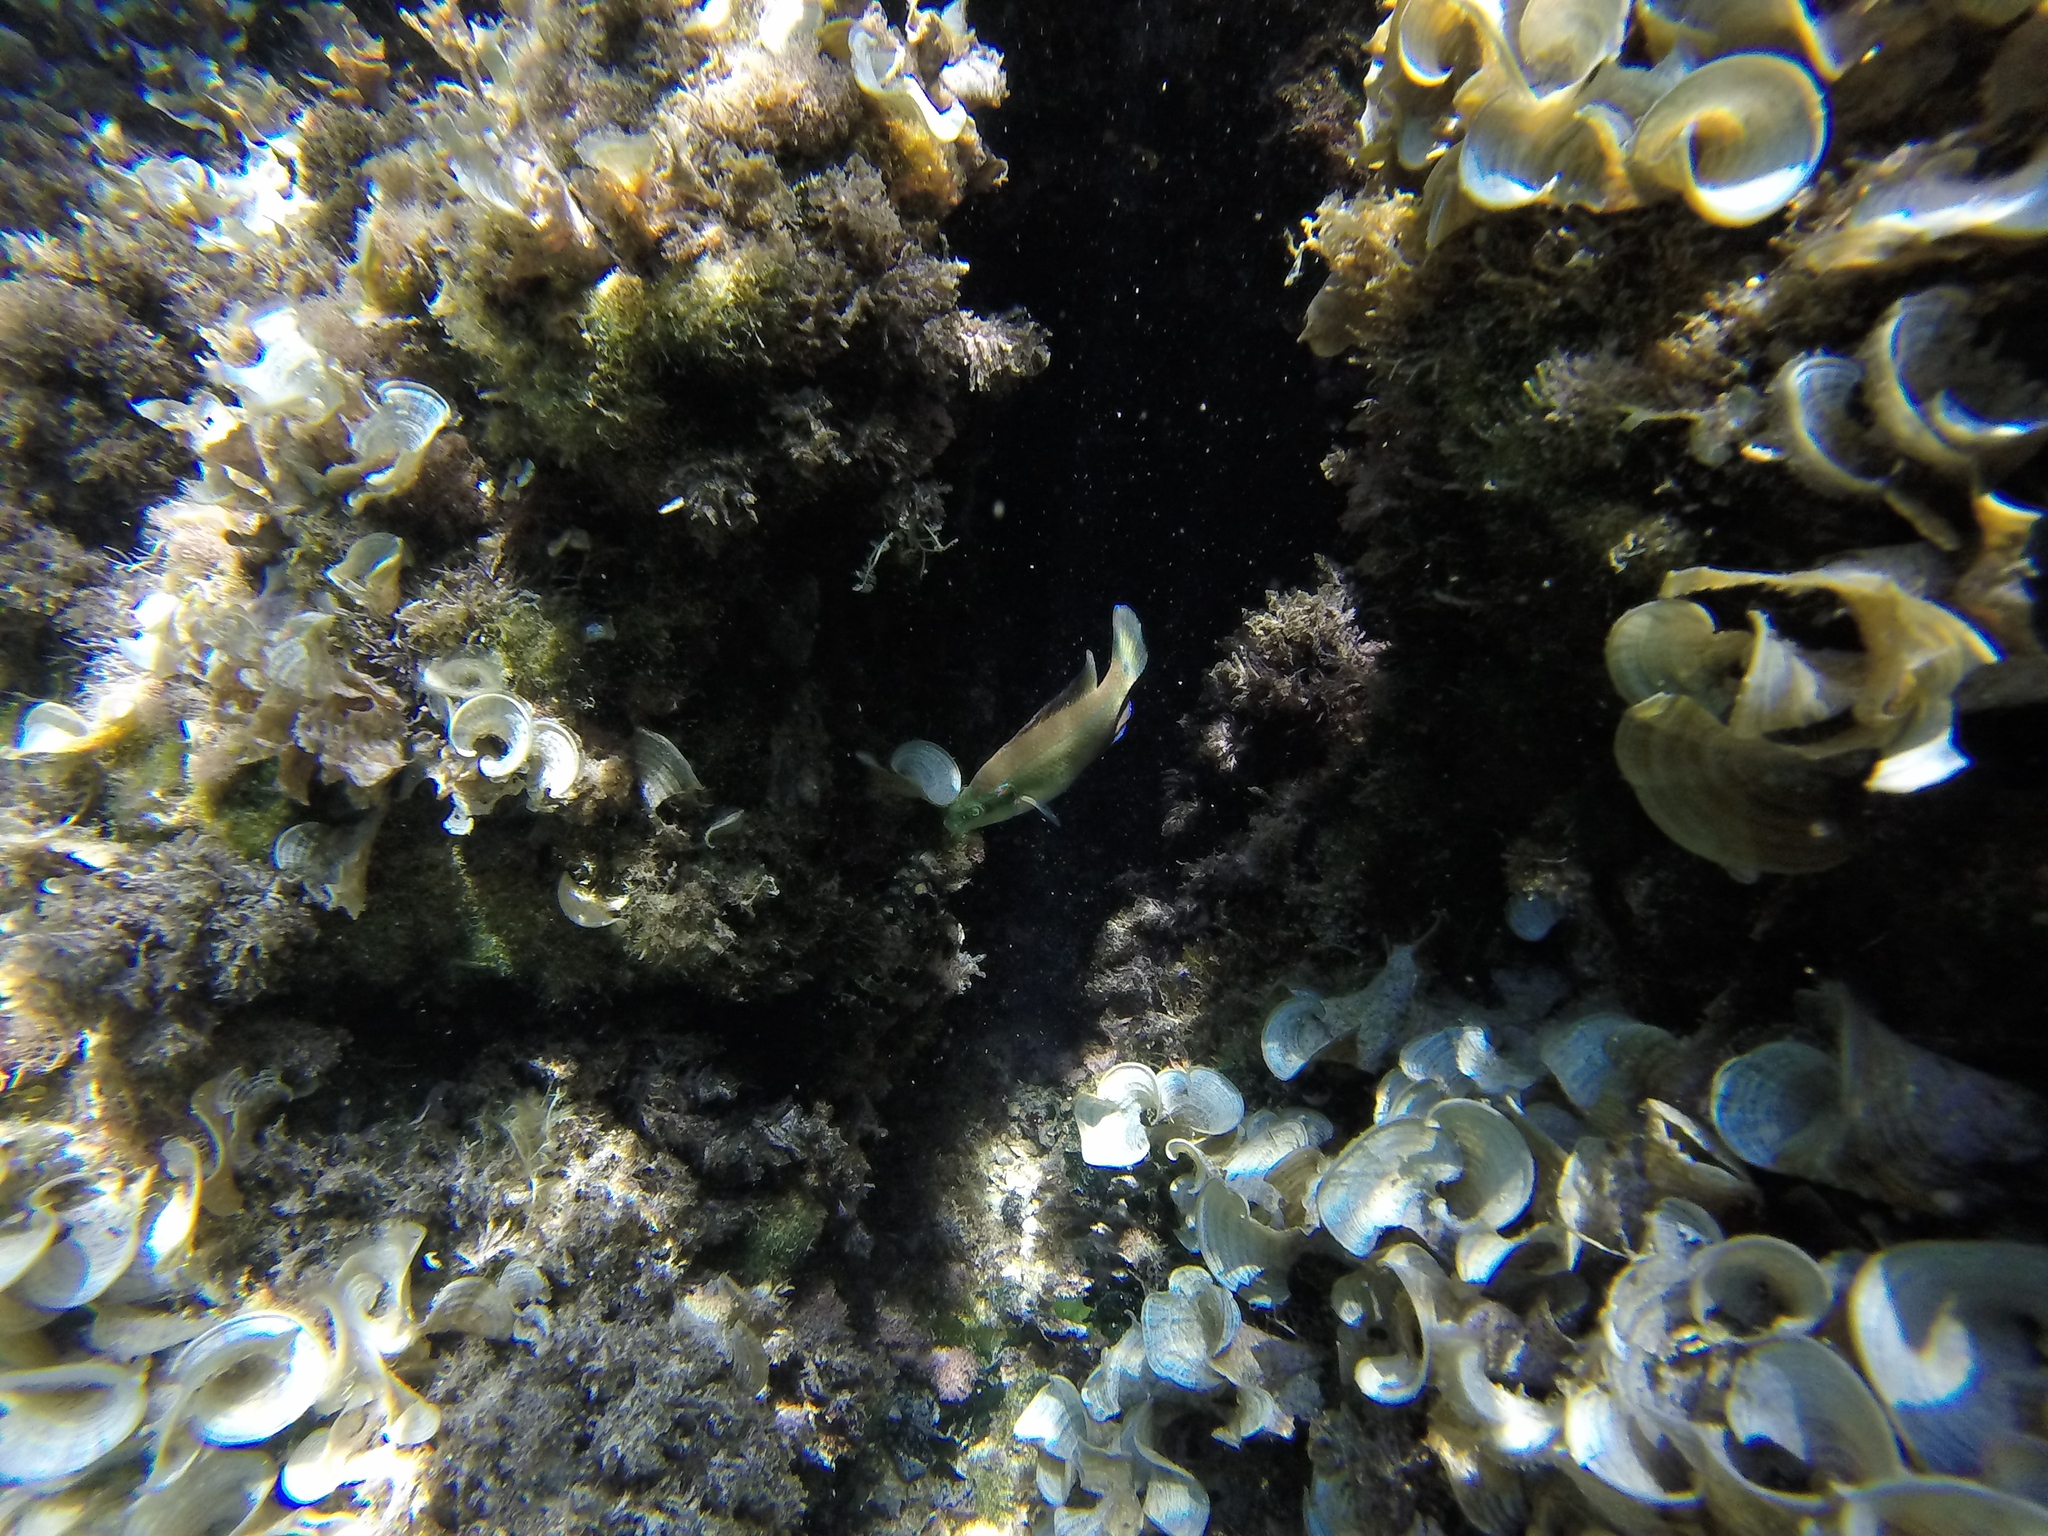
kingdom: Animalia
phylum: Chordata
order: Perciformes
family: Labridae
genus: Symphodus
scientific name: Symphodus ocellatus
